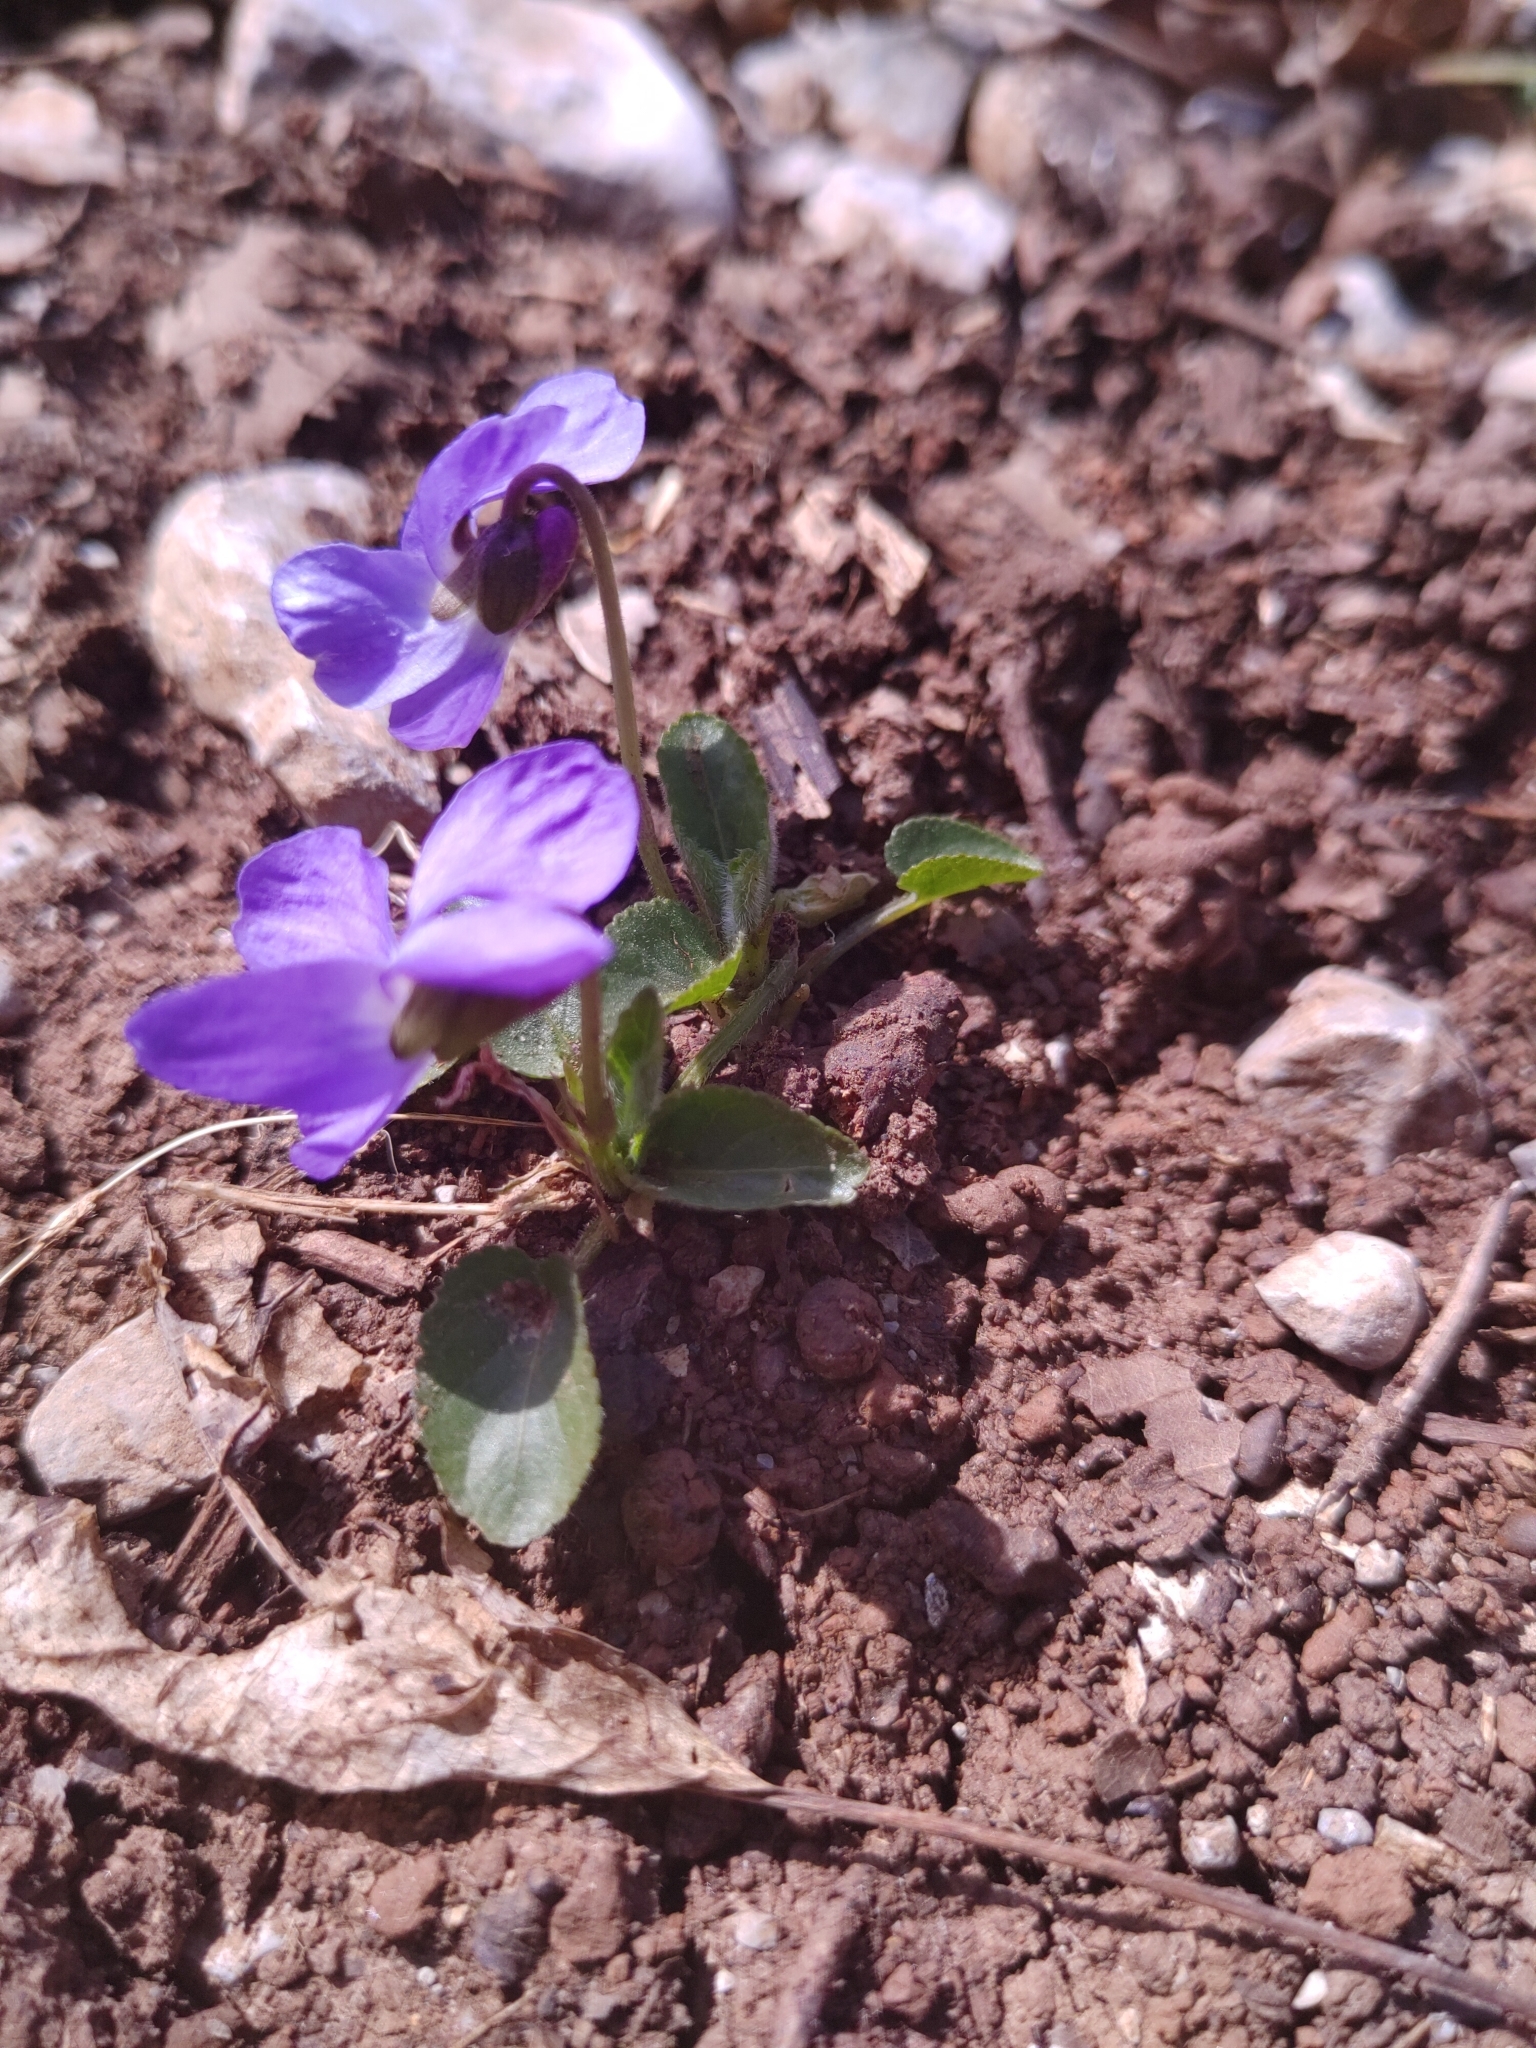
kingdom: Plantae
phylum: Tracheophyta
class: Magnoliopsida
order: Malpighiales
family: Violaceae
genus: Viola
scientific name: Viola rupestris
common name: Teesdale violet
